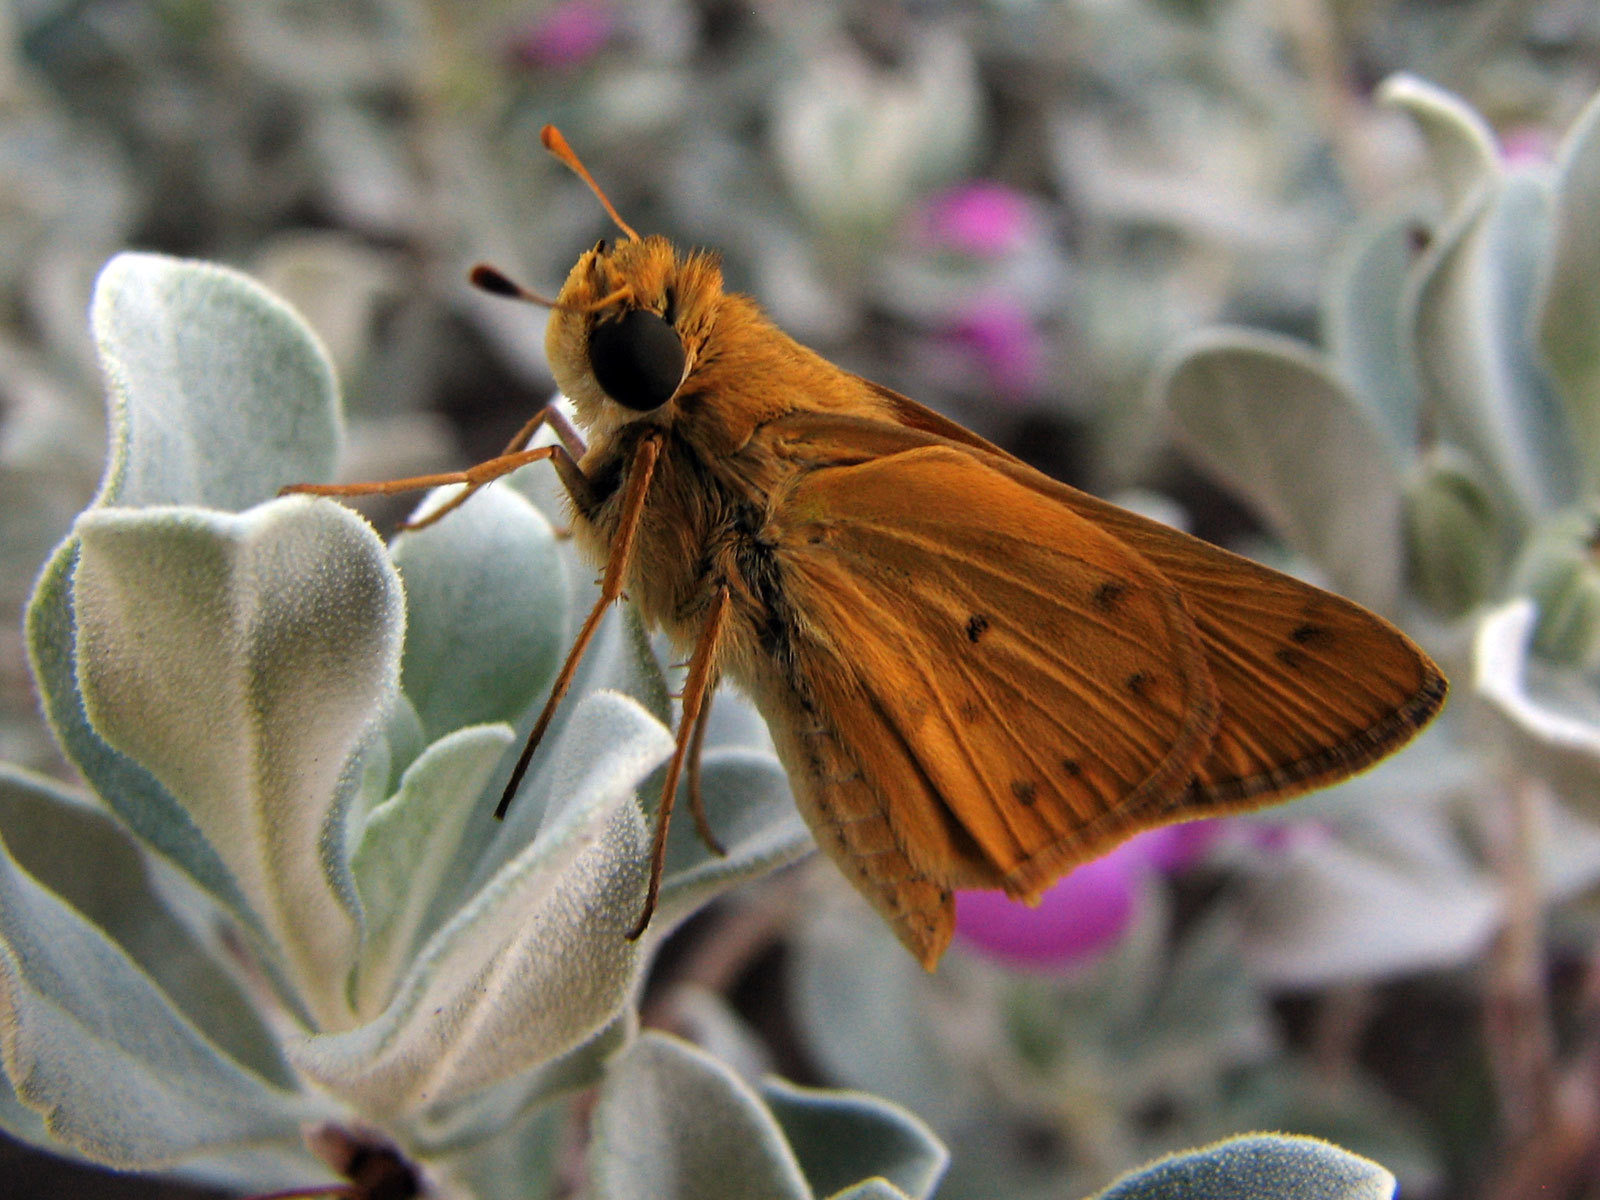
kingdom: Animalia
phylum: Arthropoda
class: Insecta
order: Lepidoptera
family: Hesperiidae
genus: Hylephila
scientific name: Hylephila phyleus
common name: Fiery skipper
